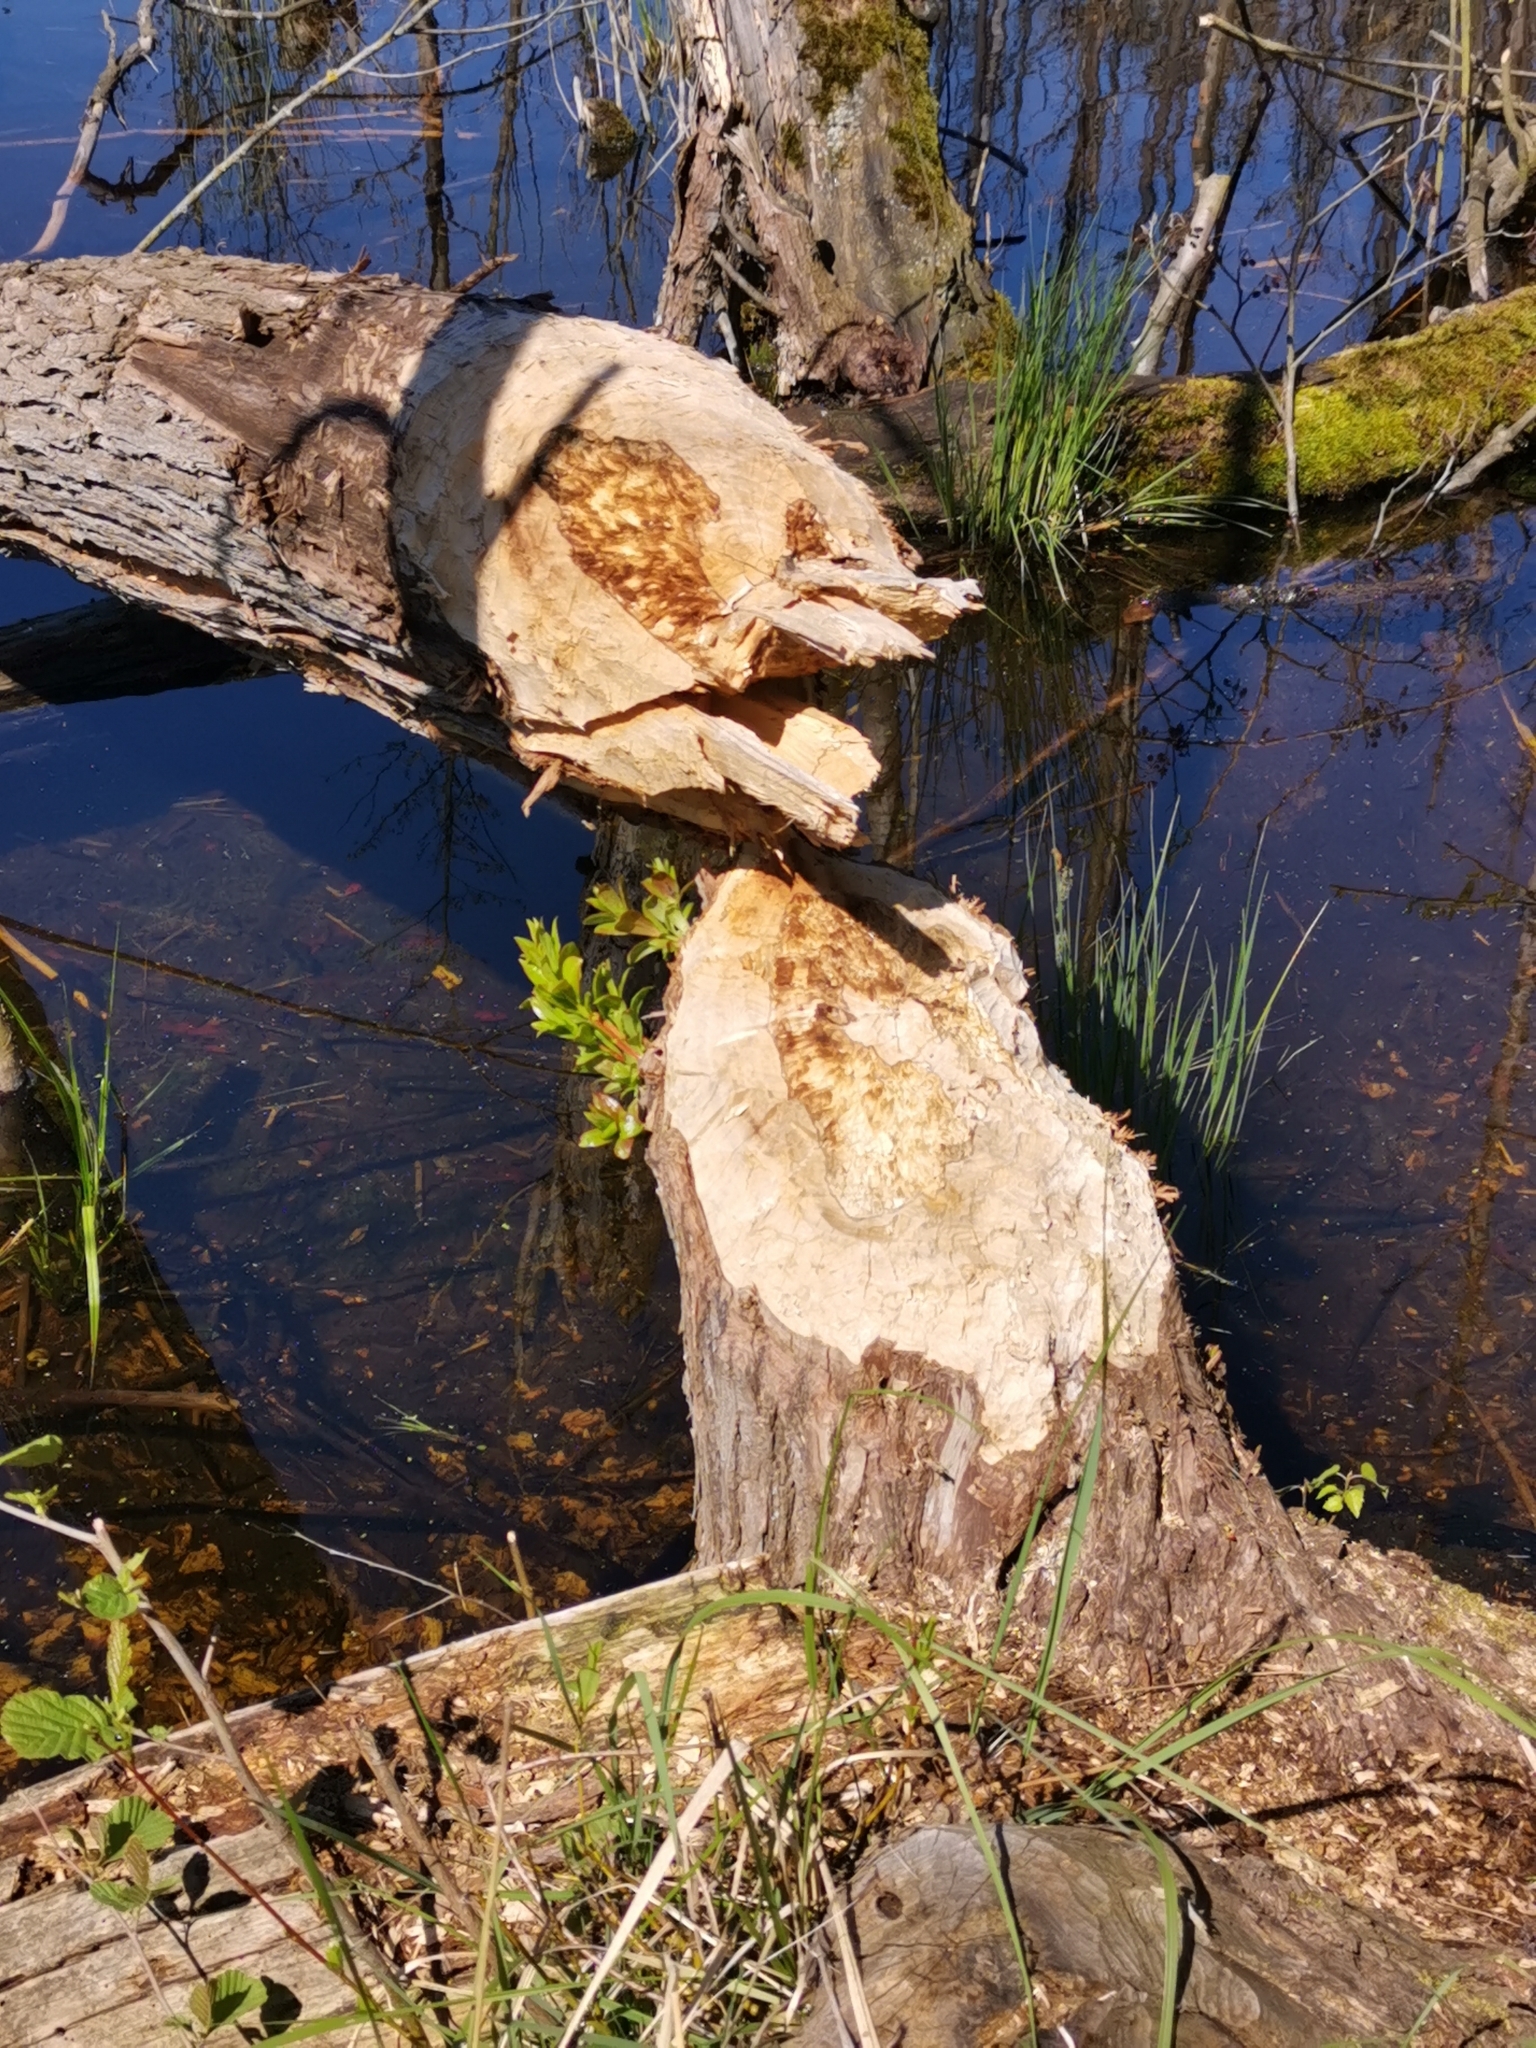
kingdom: Animalia
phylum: Chordata
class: Mammalia
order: Rodentia
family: Castoridae
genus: Castor
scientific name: Castor fiber
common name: Eurasian beaver
